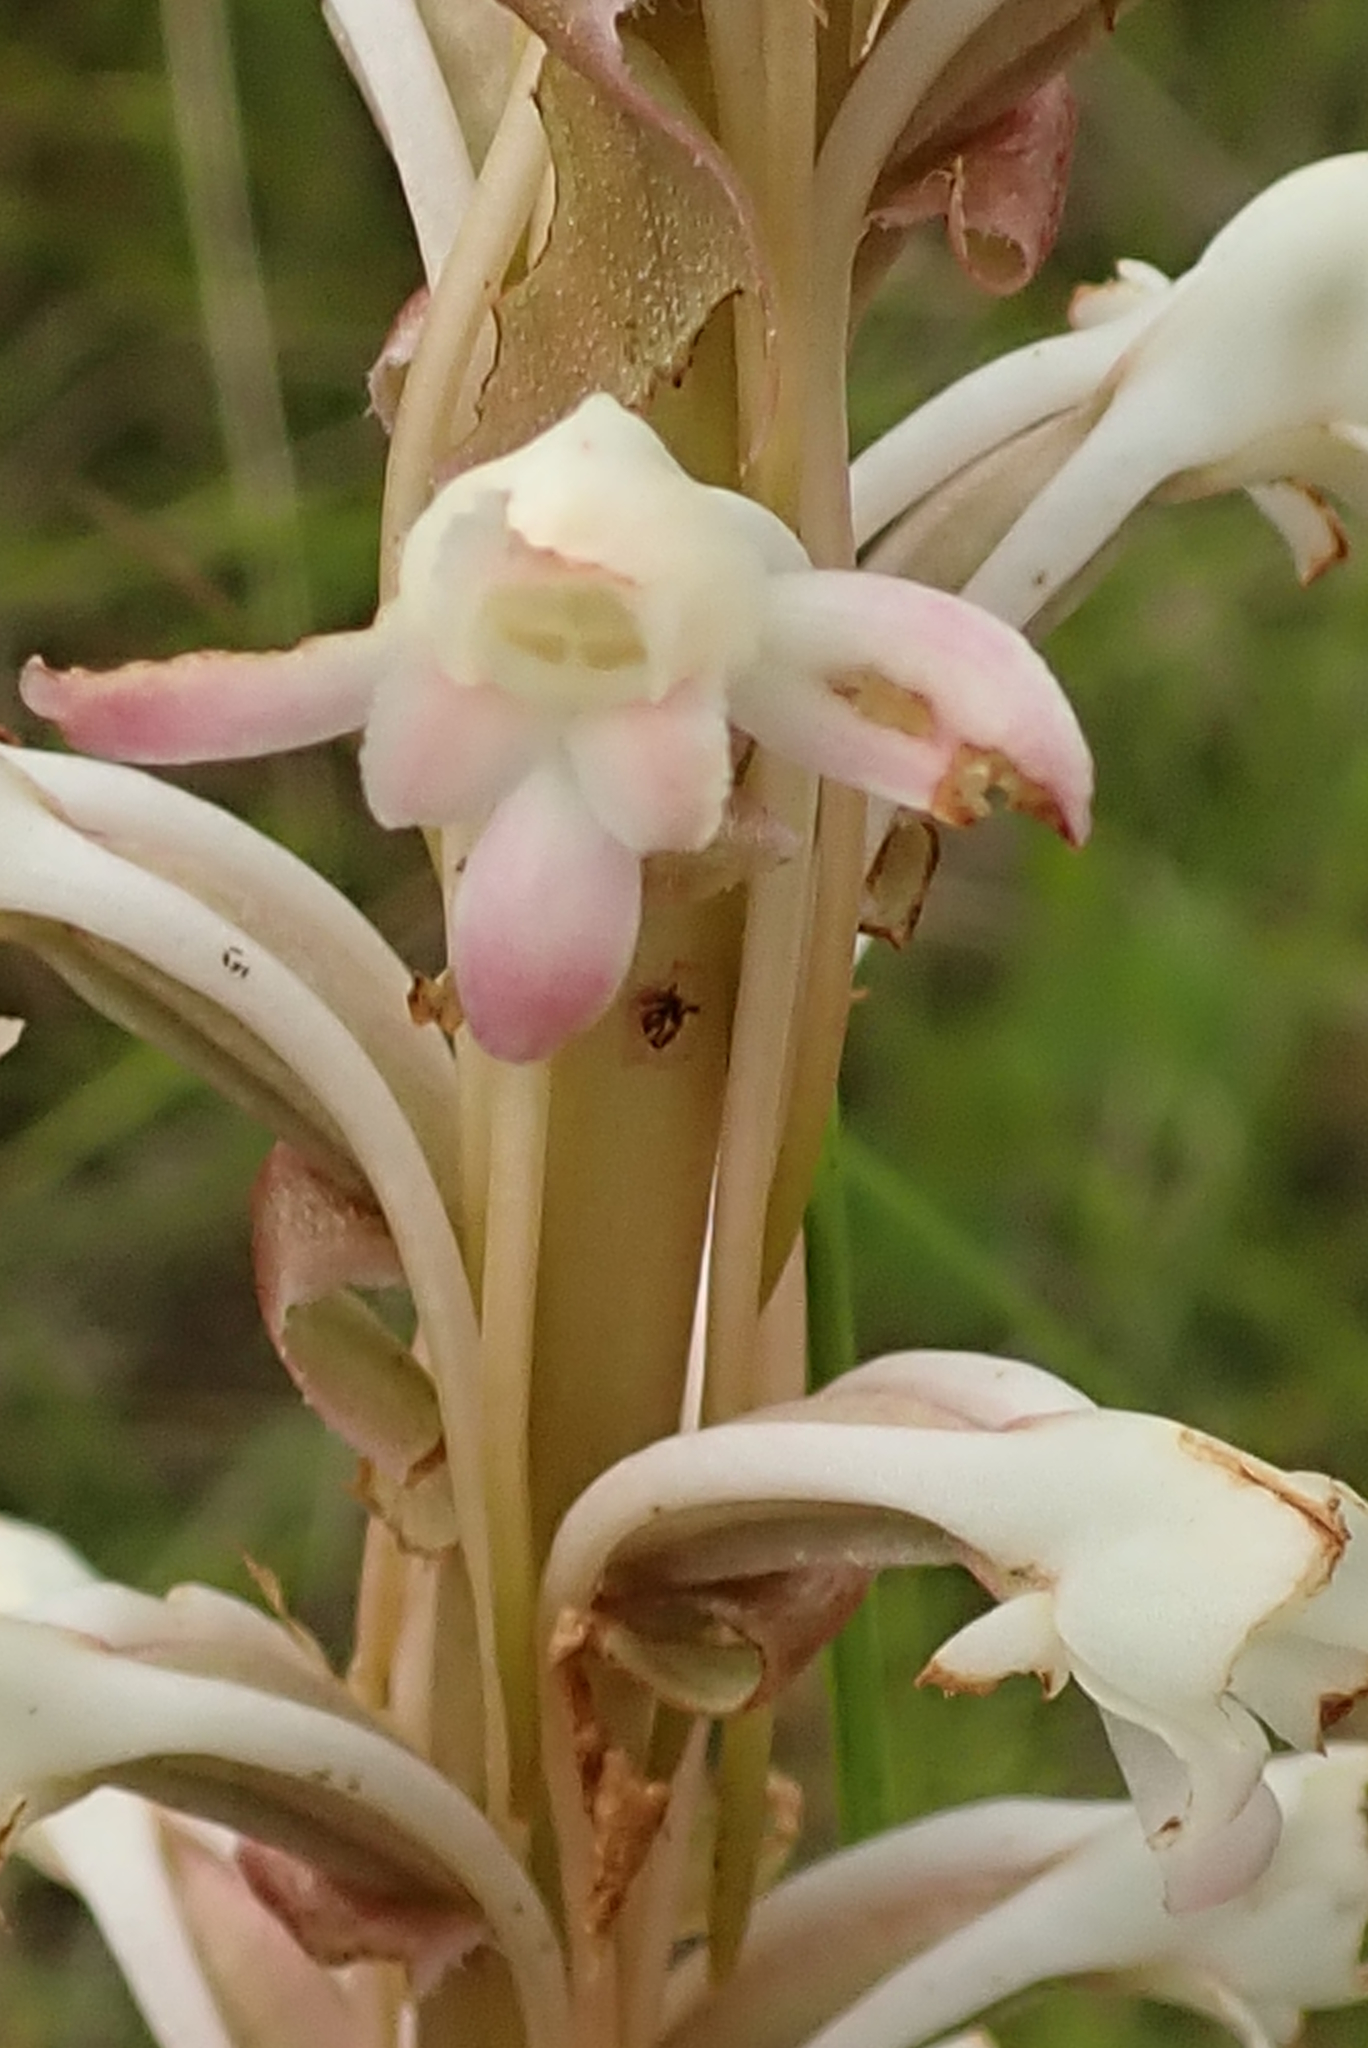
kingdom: Plantae
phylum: Tracheophyta
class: Liliopsida
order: Asparagales
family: Orchidaceae
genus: Satyrium
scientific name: Satyrium longicauda
